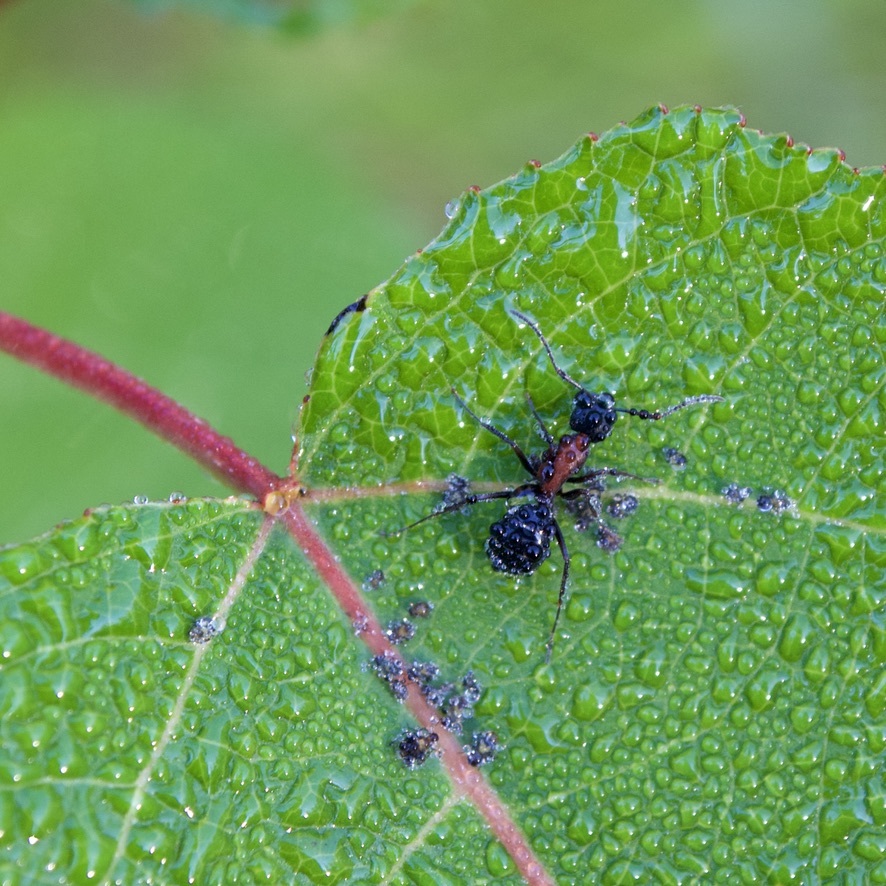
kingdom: Animalia
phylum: Arthropoda
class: Insecta
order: Hymenoptera
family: Formicidae
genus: Camponotus
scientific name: Camponotus novaeboracensis
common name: New york carpenter ant
